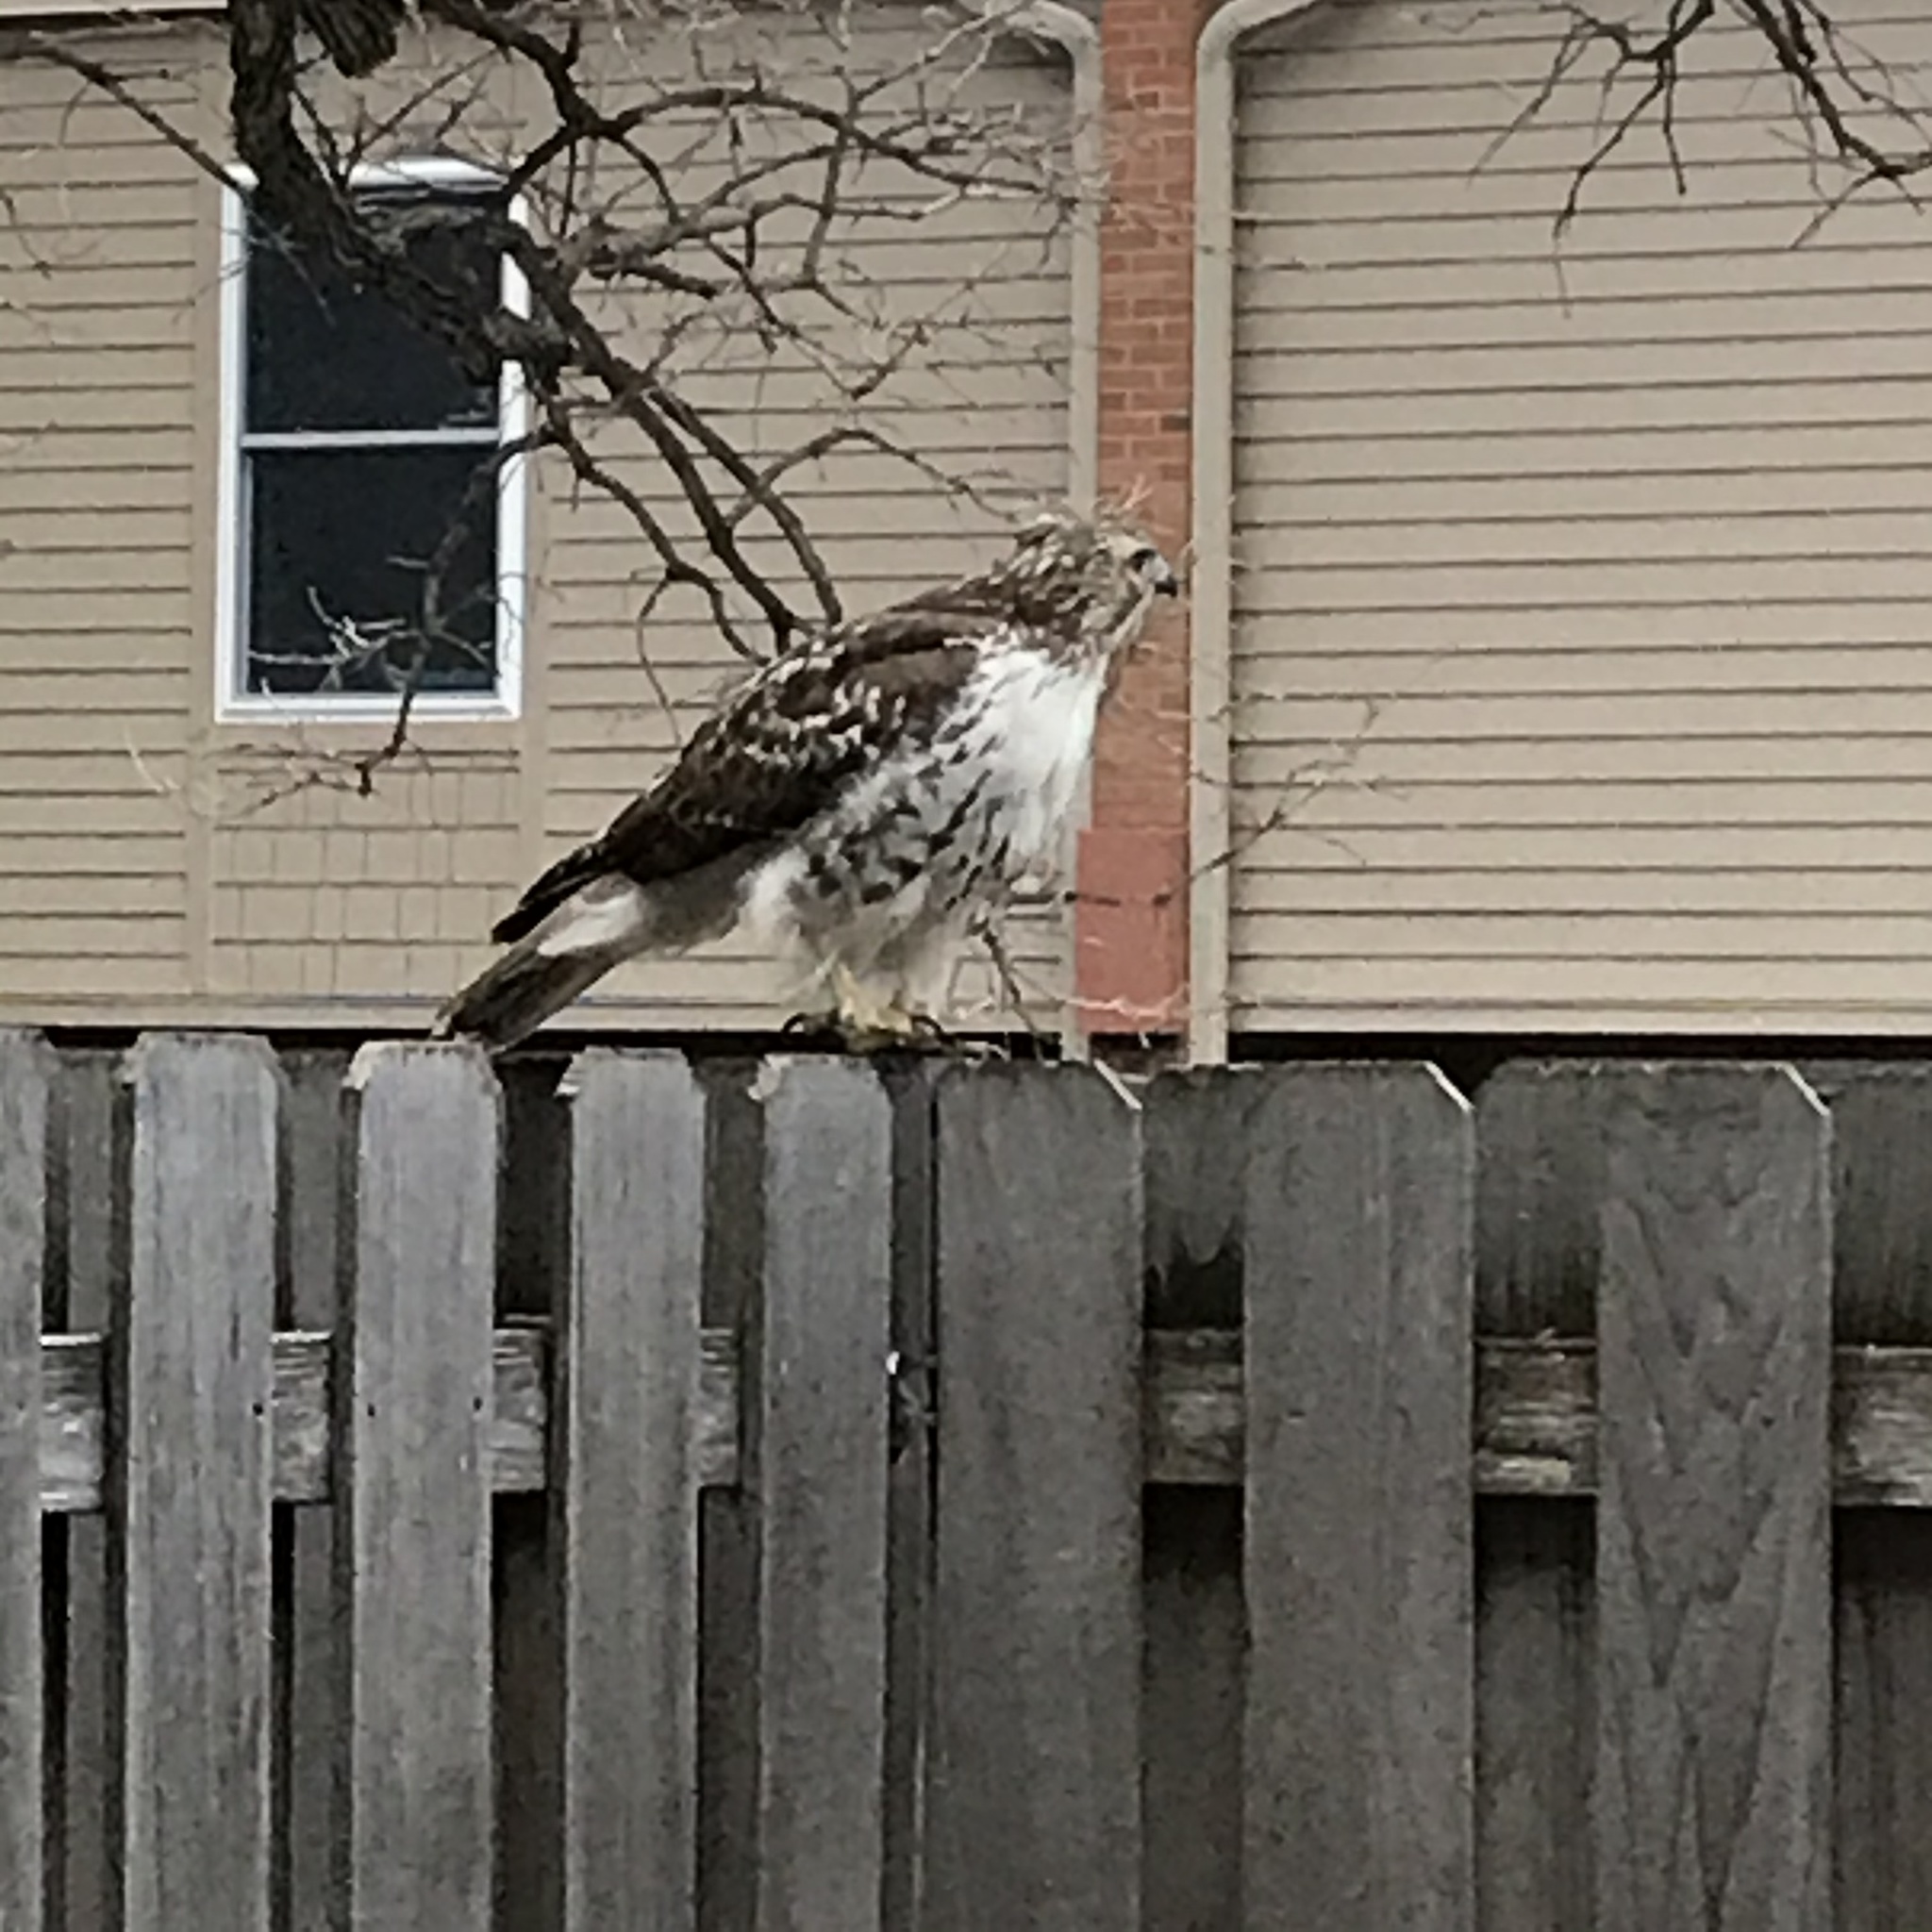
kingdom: Animalia
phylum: Chordata
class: Aves
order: Accipitriformes
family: Accipitridae
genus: Buteo
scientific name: Buteo jamaicensis
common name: Red-tailed hawk
